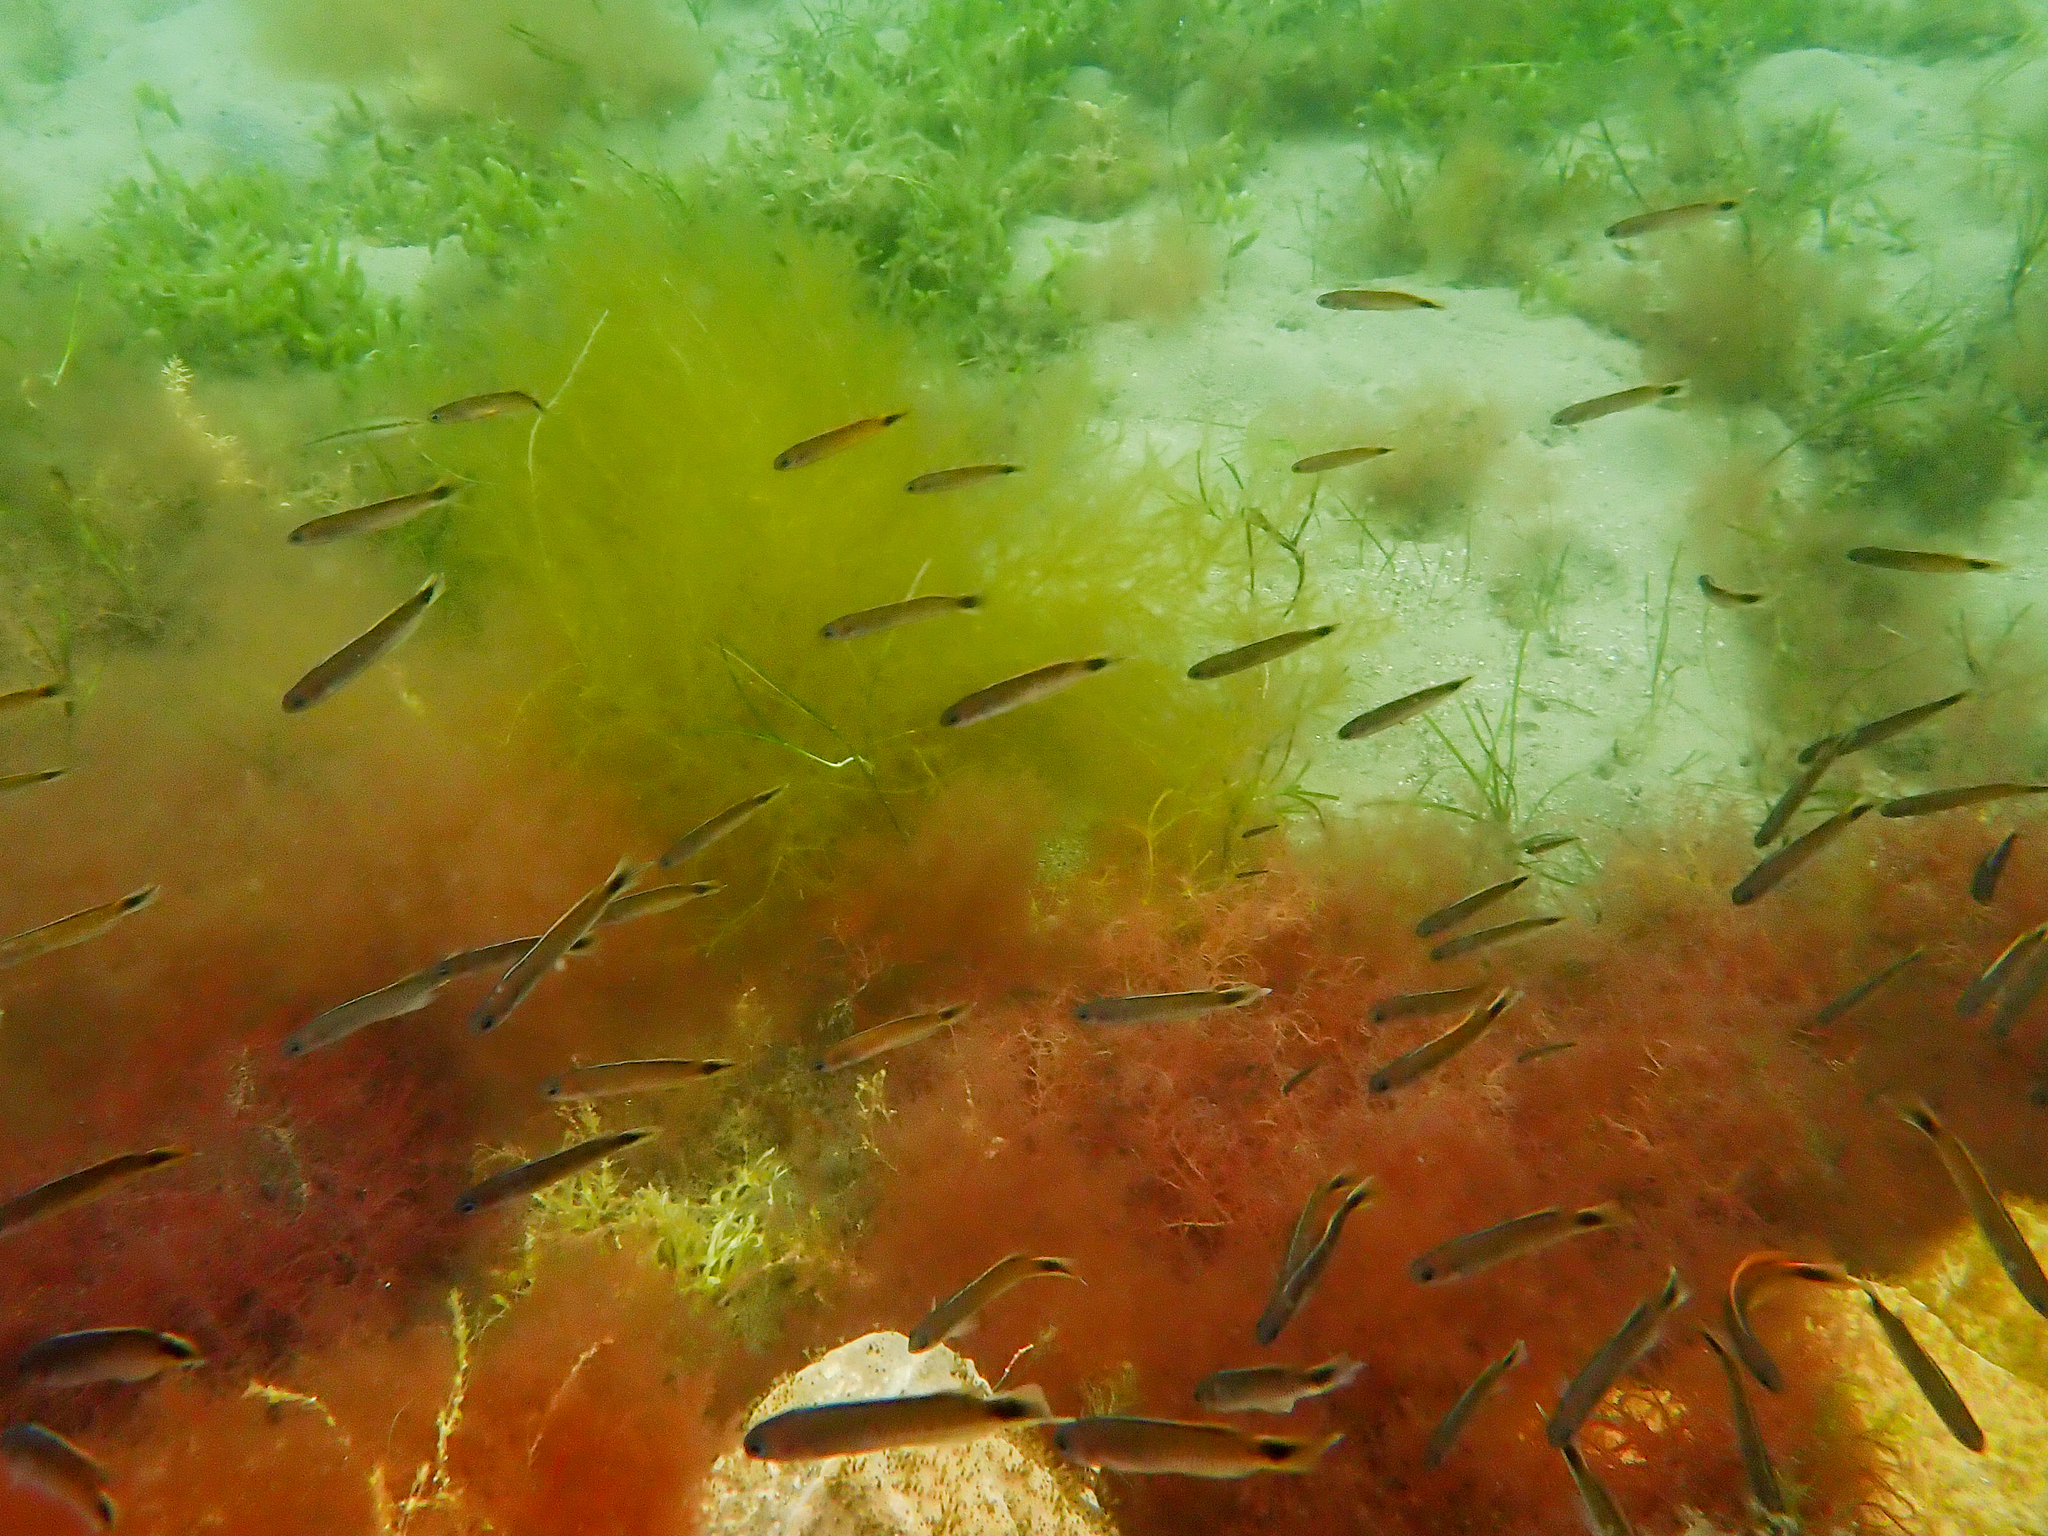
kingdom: Animalia
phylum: Chordata
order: Perciformes
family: Plesiopidae
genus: Trachinops
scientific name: Trachinops caudimaculatus
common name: Blotched-tailed trachinops
